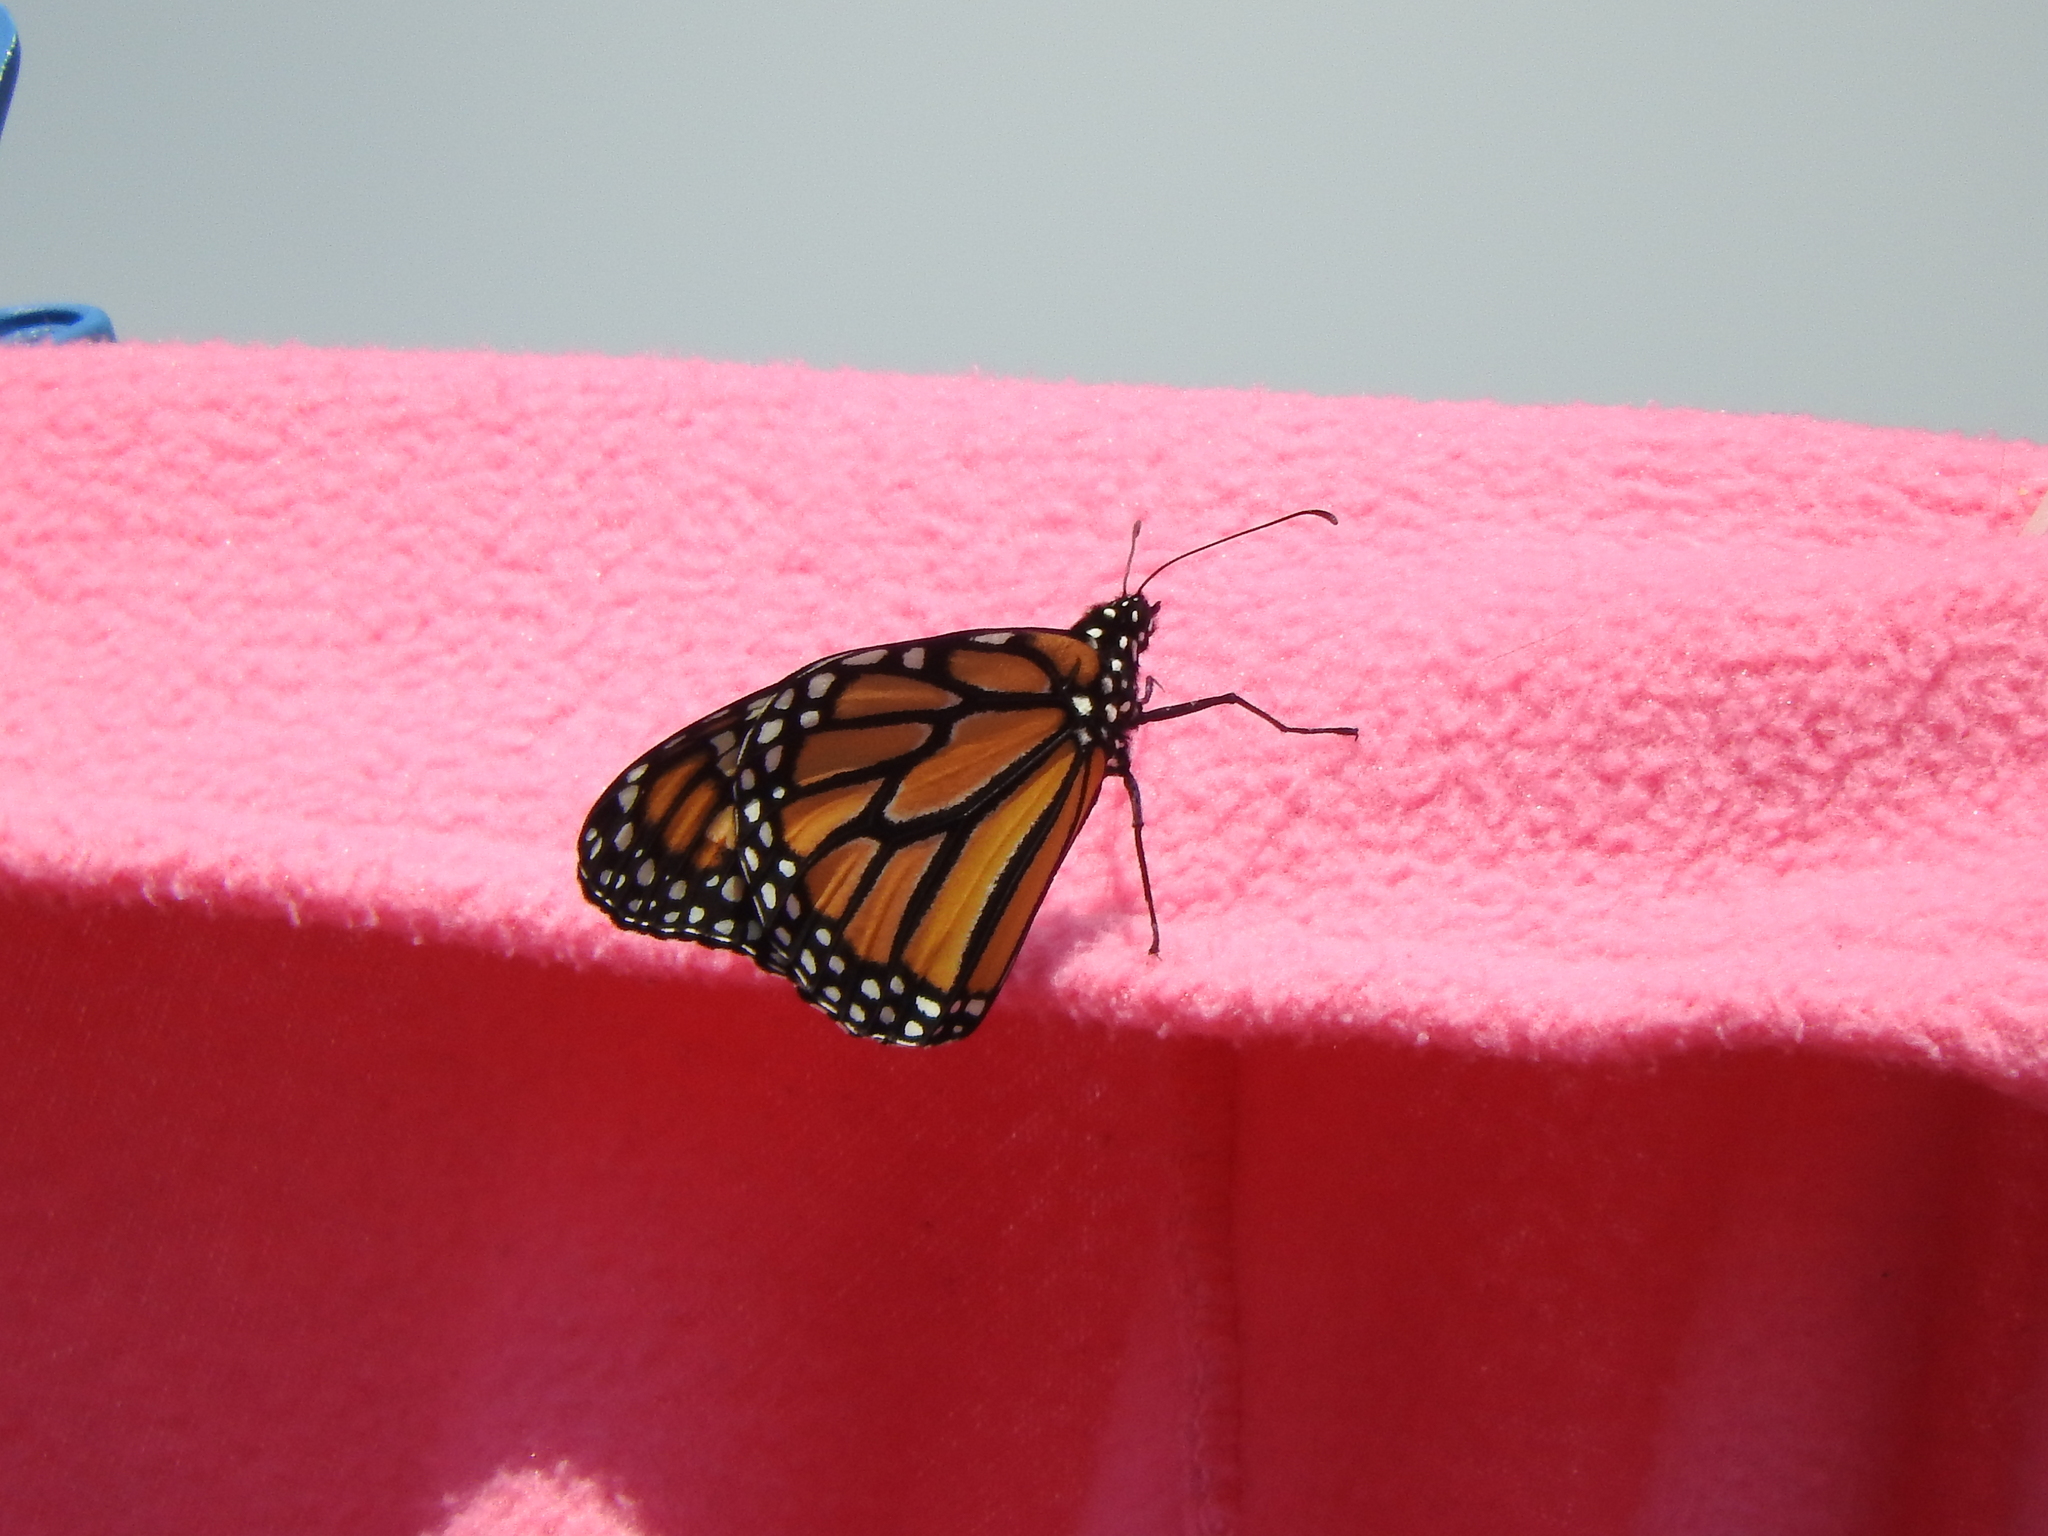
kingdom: Animalia
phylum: Arthropoda
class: Insecta
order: Lepidoptera
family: Nymphalidae
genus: Danaus
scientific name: Danaus plexippus
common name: Monarch
